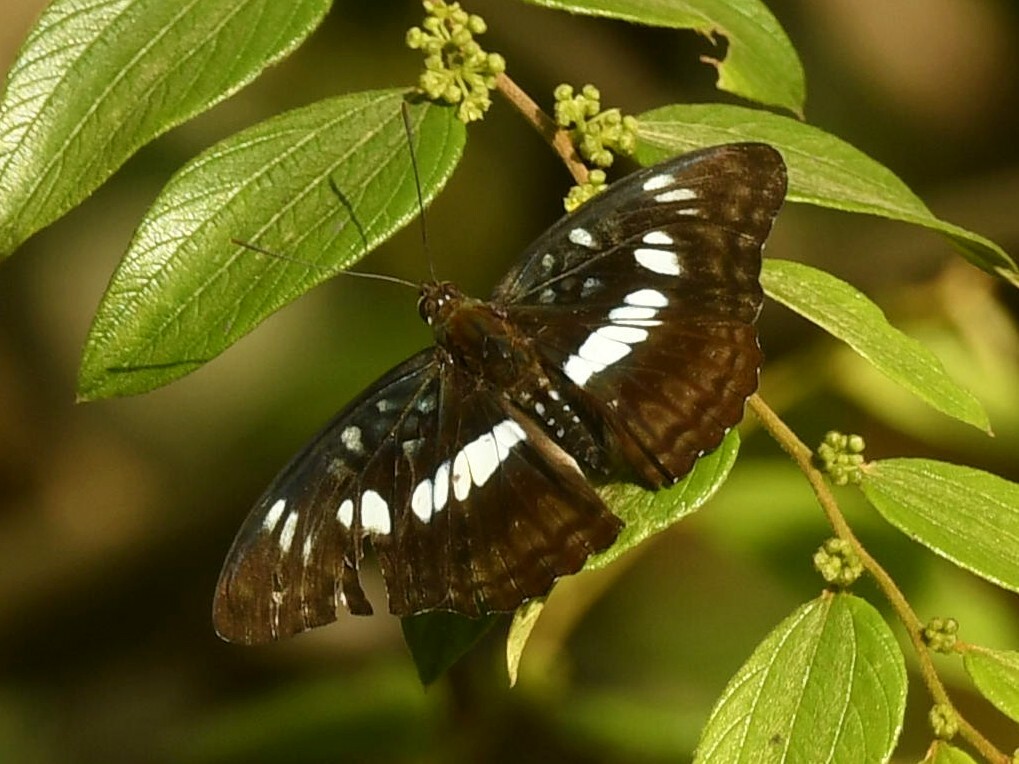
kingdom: Animalia
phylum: Arthropoda
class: Insecta
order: Lepidoptera
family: Nymphalidae
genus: Parathyma
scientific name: Parathyma ranga
